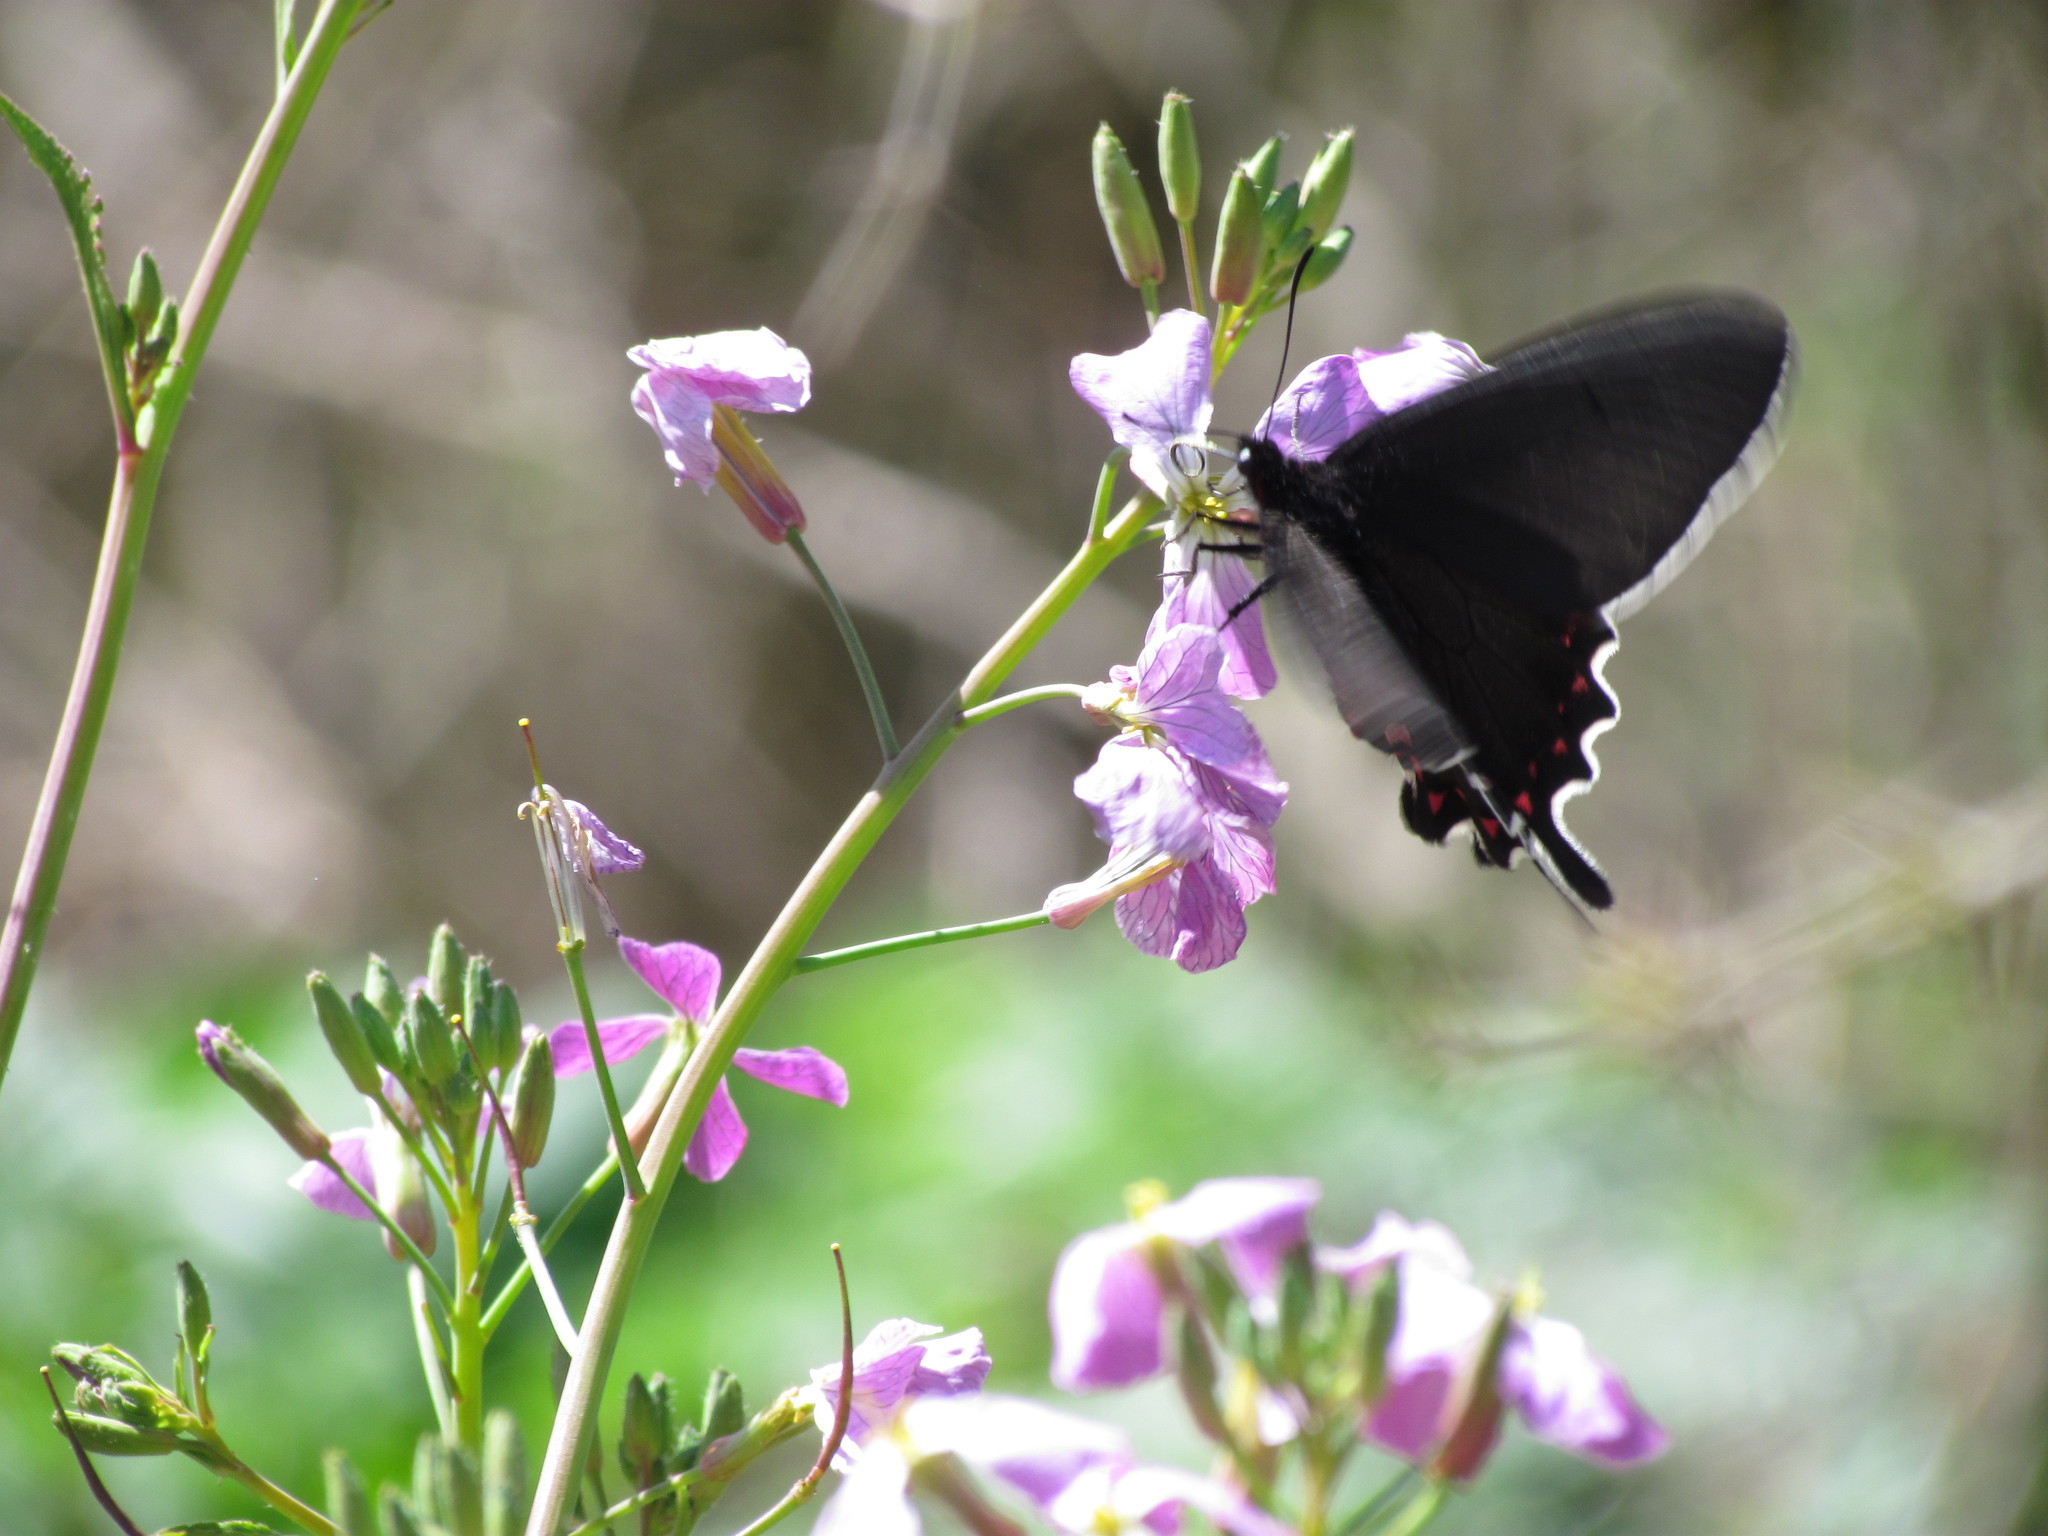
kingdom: Animalia
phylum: Arthropoda
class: Insecta
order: Lepidoptera
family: Papilionidae
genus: Parides
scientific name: Parides bunichus
